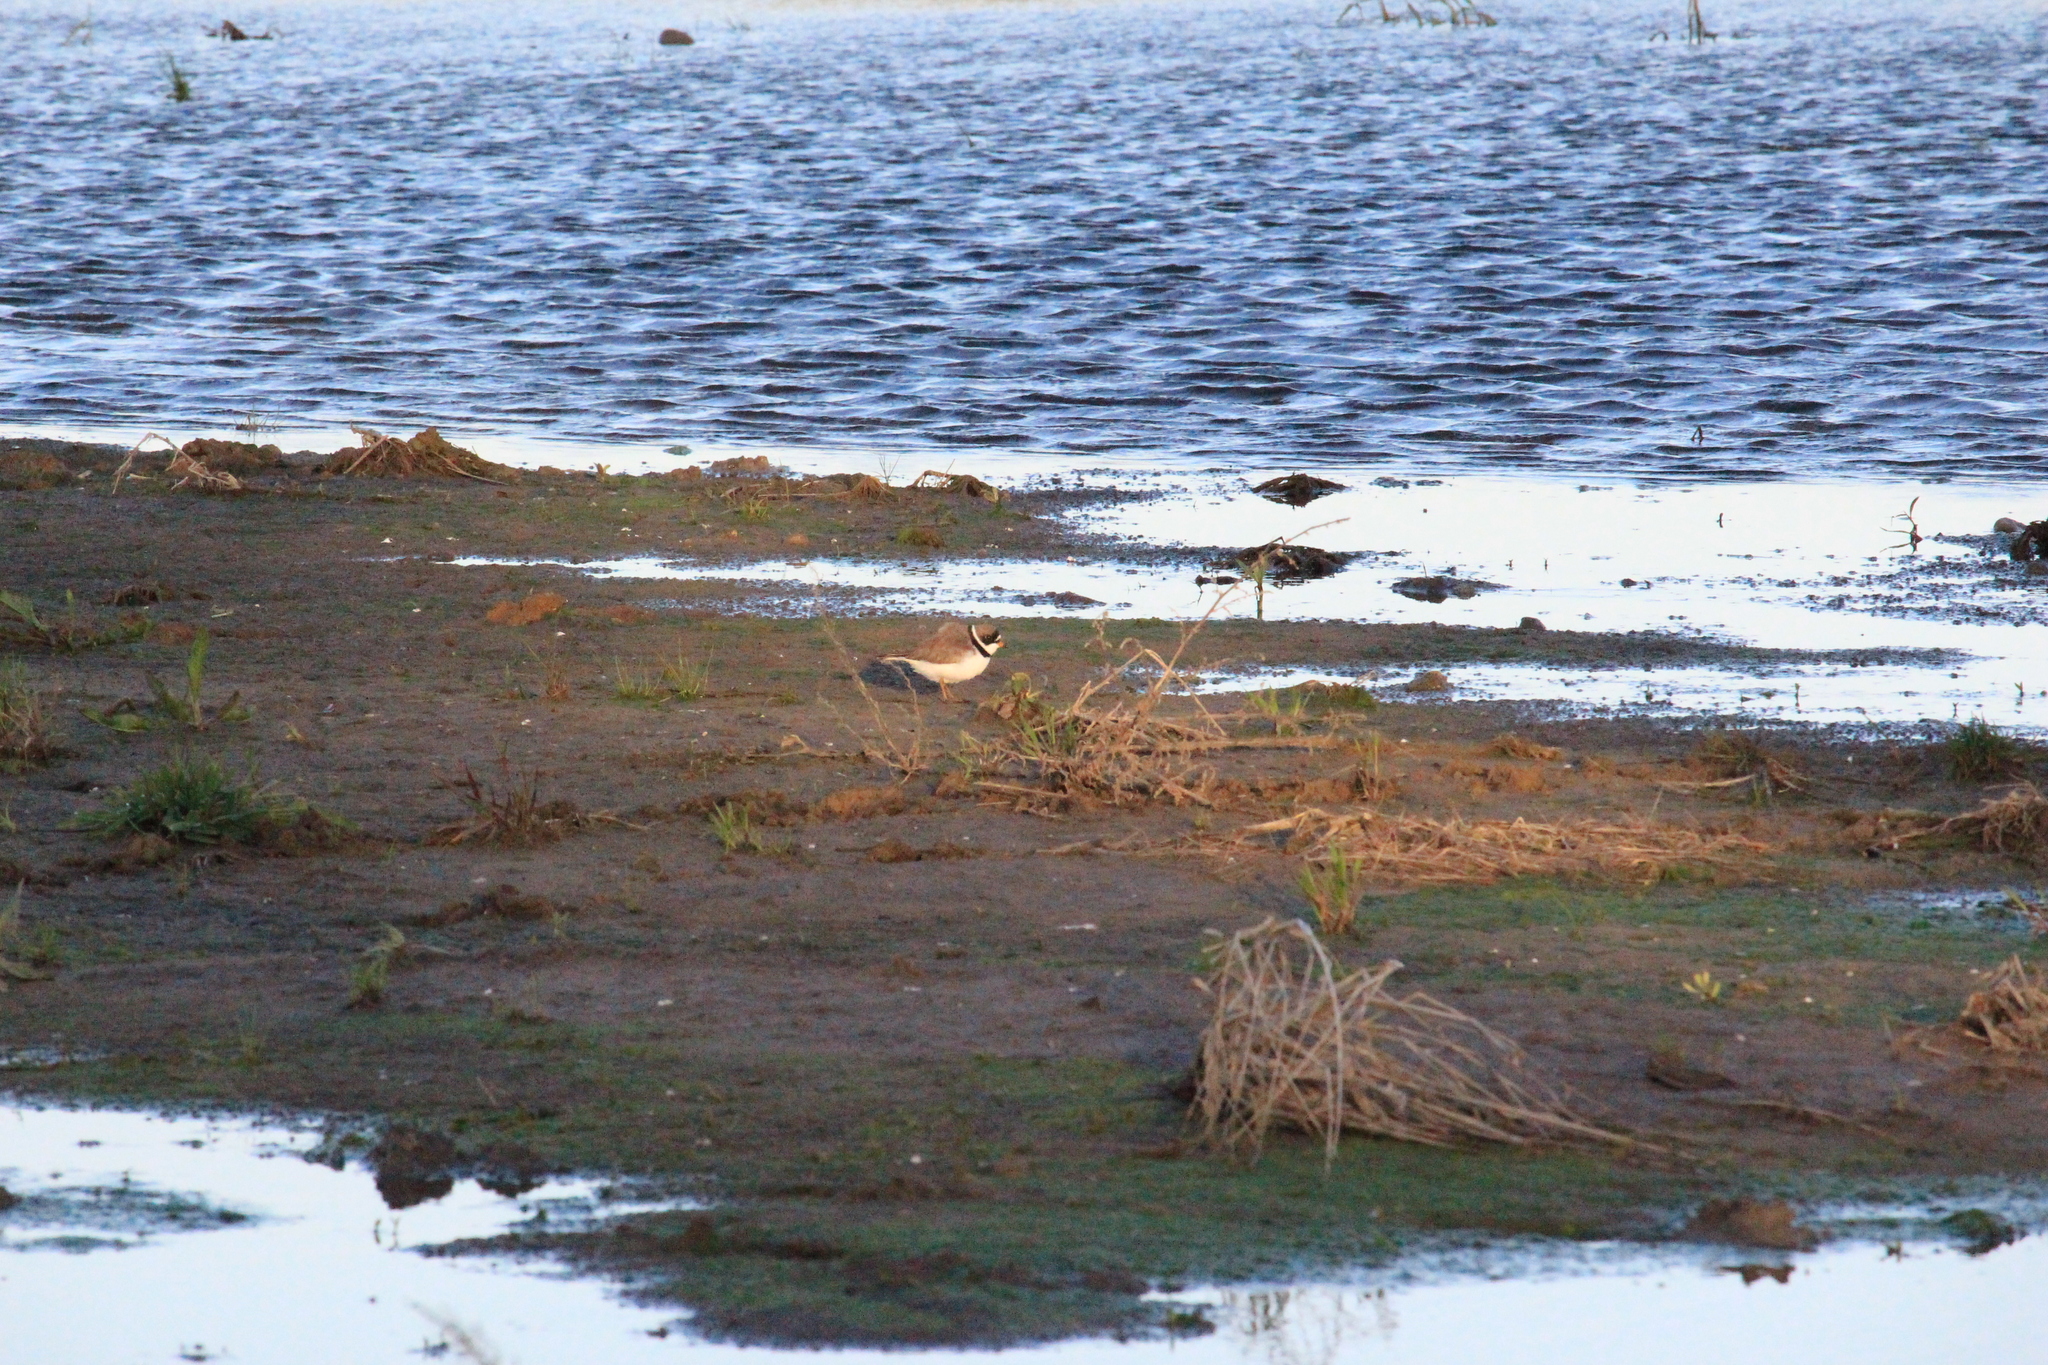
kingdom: Animalia
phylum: Chordata
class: Aves
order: Charadriiformes
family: Charadriidae
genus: Charadrius
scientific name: Charadrius semipalmatus
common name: Semipalmated plover
